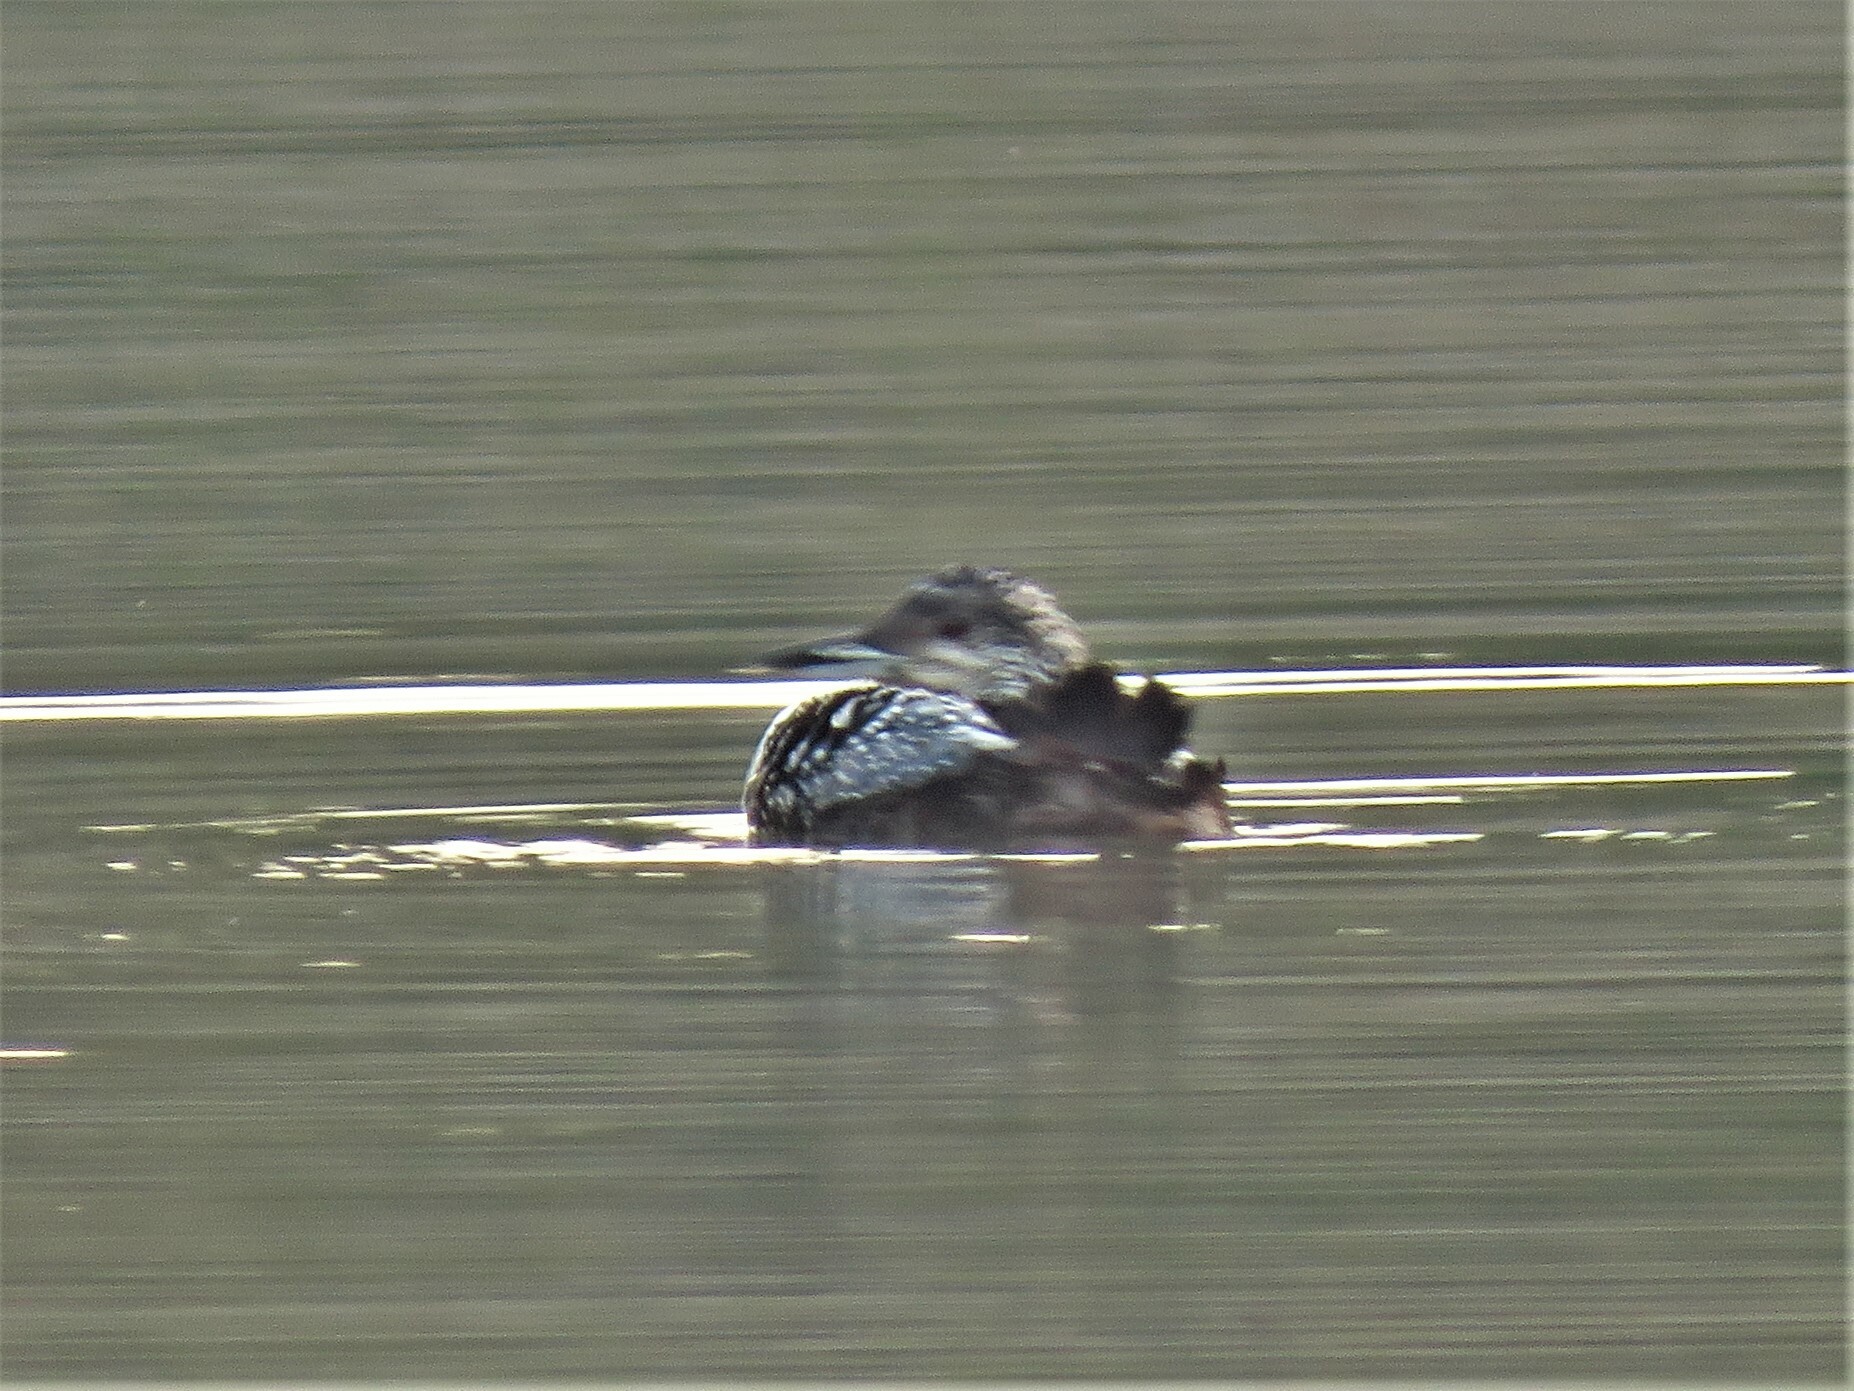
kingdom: Animalia
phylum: Chordata
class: Aves
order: Gaviiformes
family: Gaviidae
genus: Gavia
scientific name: Gavia immer
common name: Common loon
